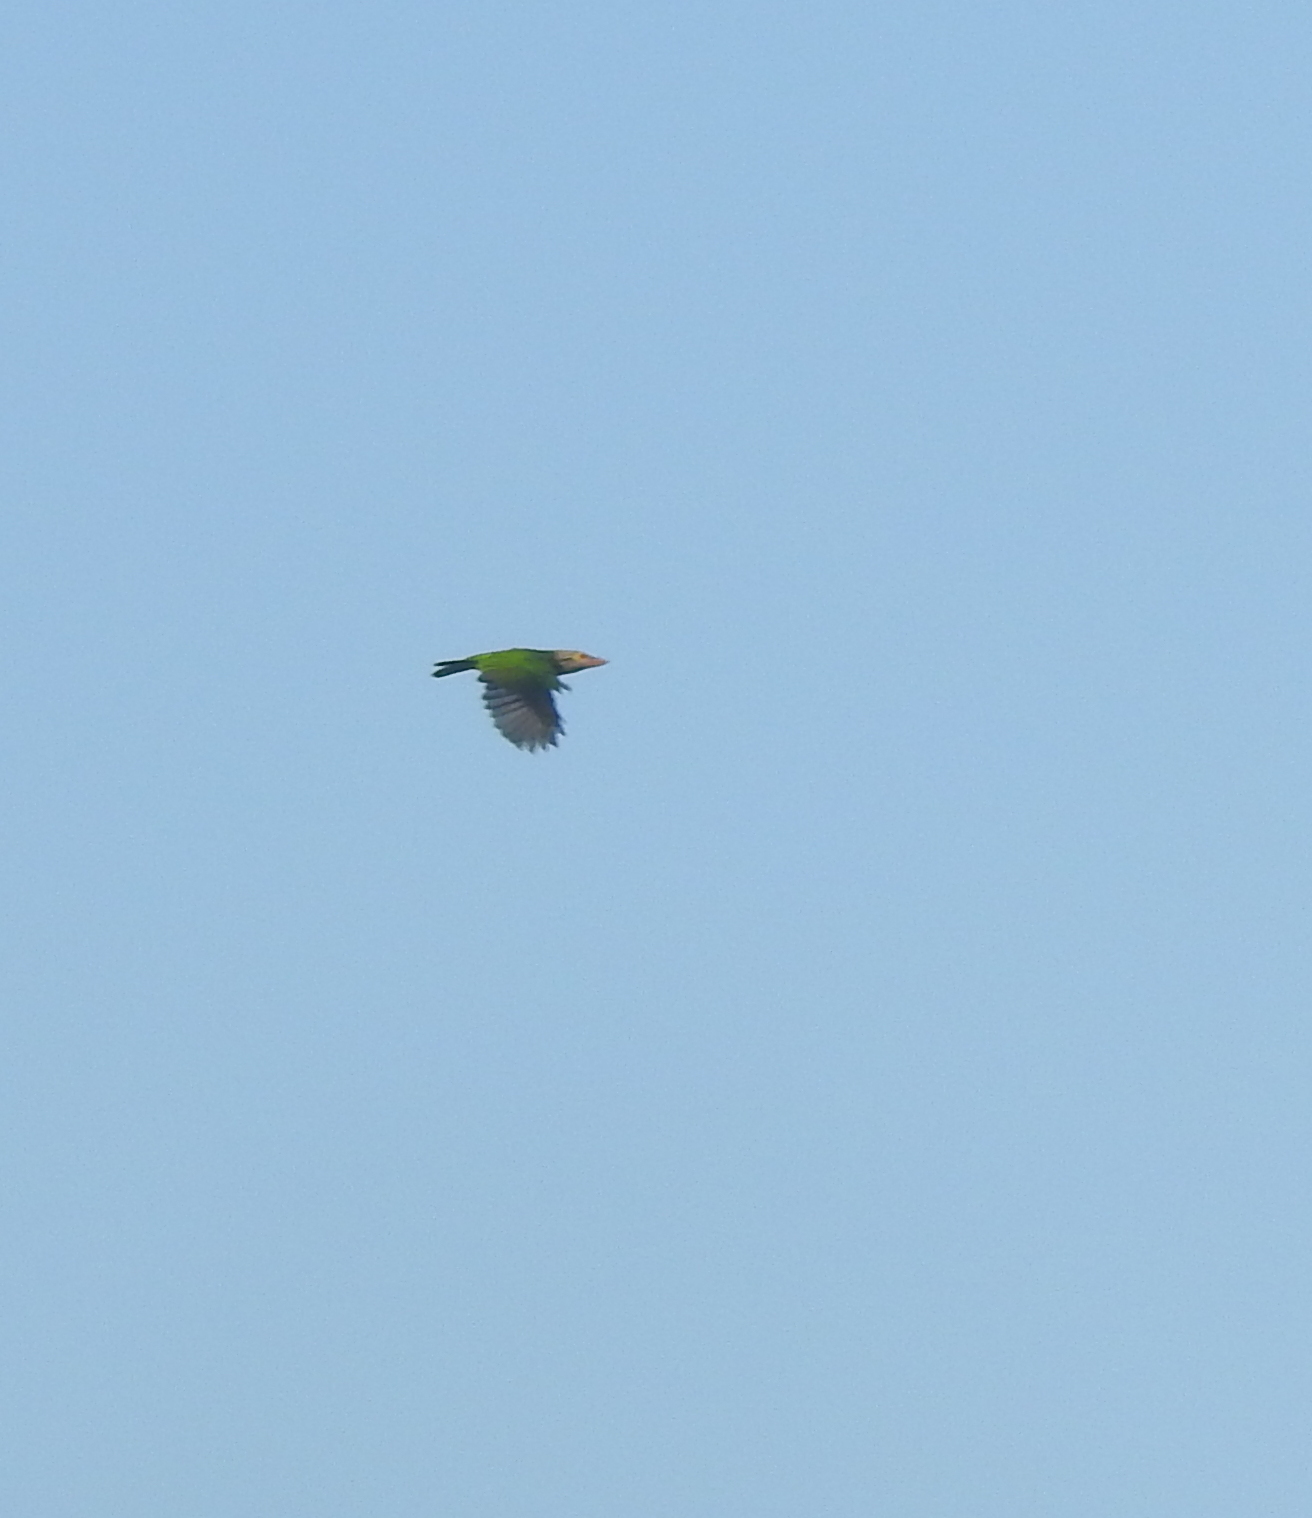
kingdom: Animalia
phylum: Chordata
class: Aves
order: Piciformes
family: Megalaimidae
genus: Psilopogon
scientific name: Psilopogon lineatus
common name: Lineated barbet
